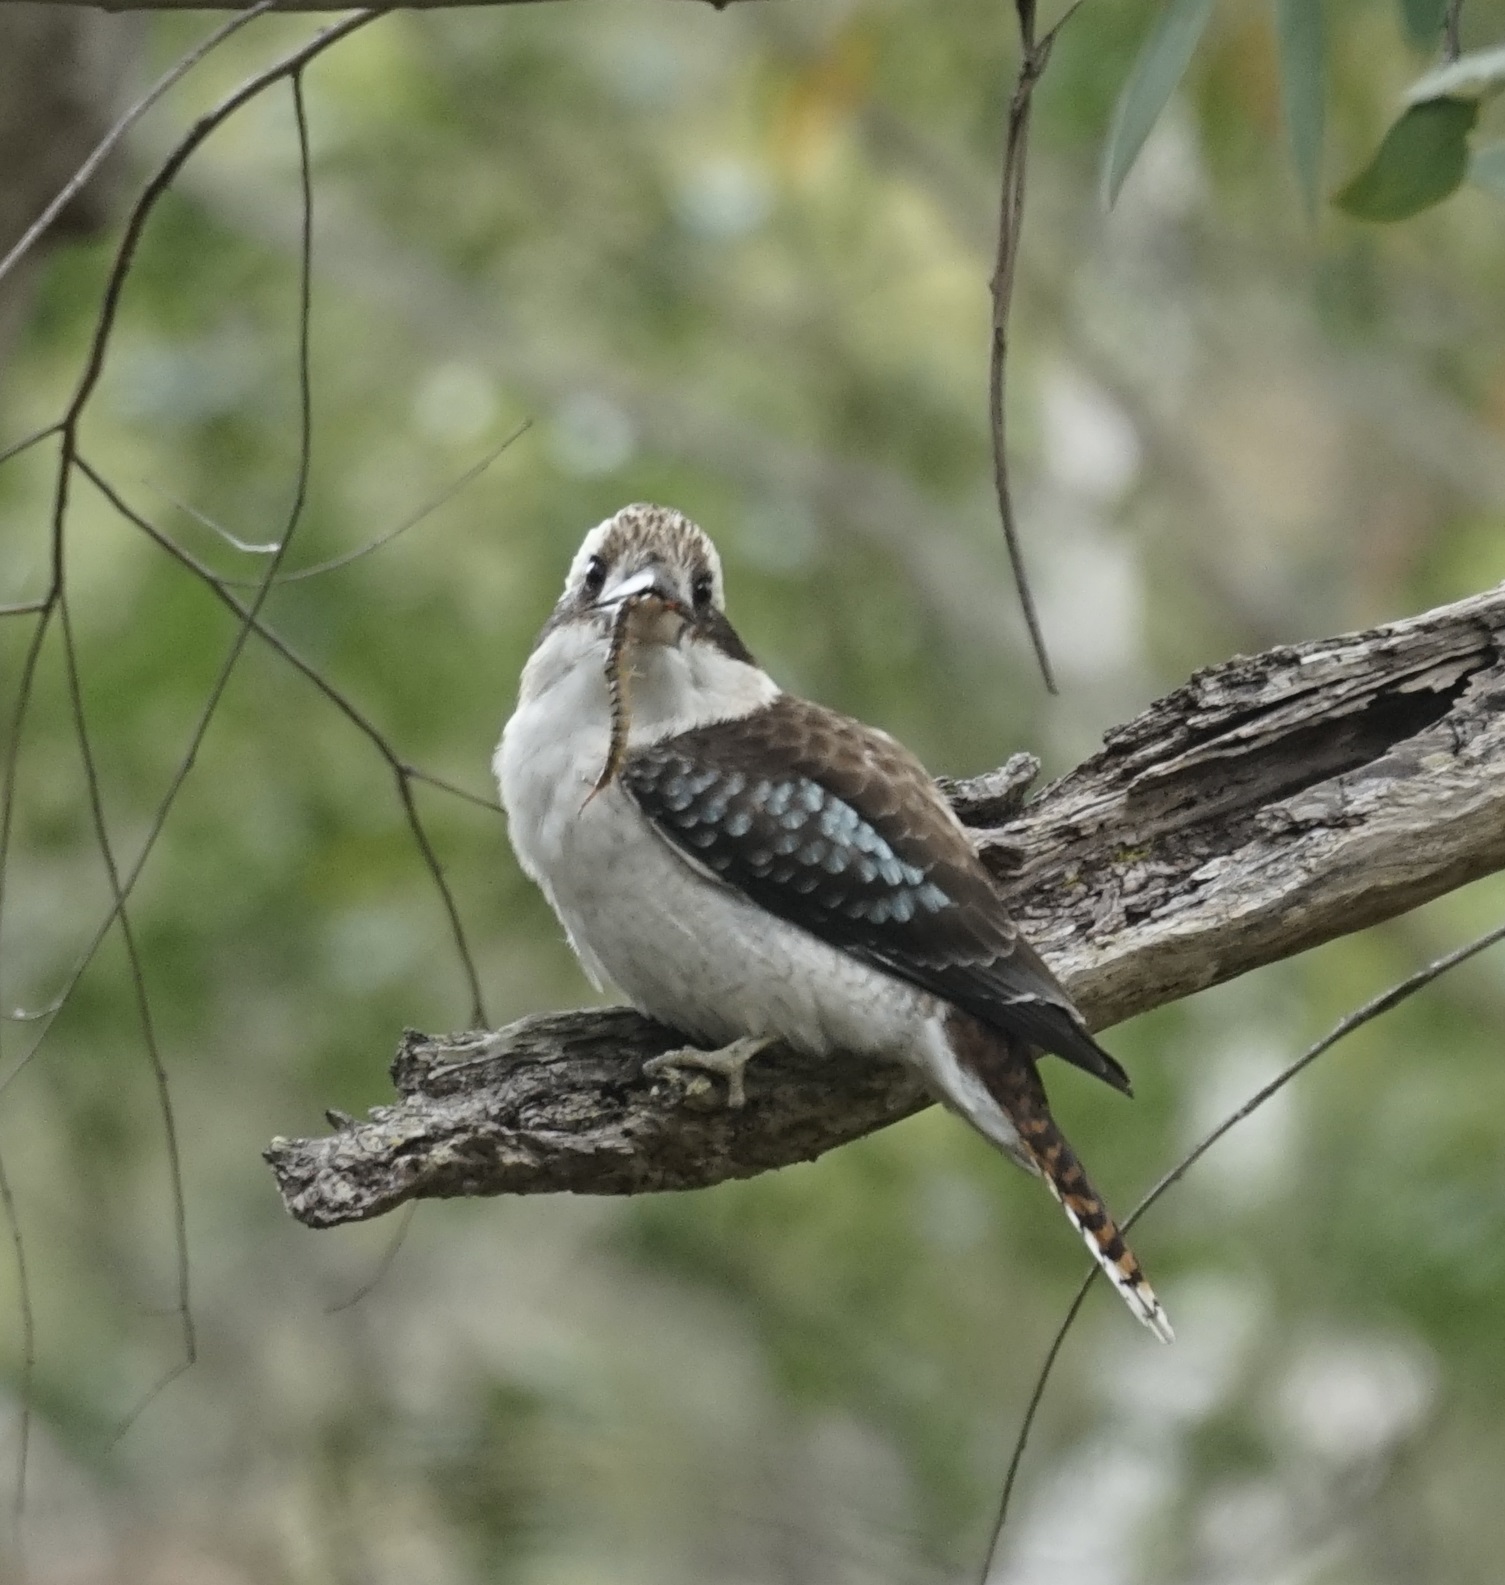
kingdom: Animalia
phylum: Chordata
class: Aves
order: Coraciiformes
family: Alcedinidae
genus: Dacelo
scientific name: Dacelo novaeguineae
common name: Laughing kookaburra
